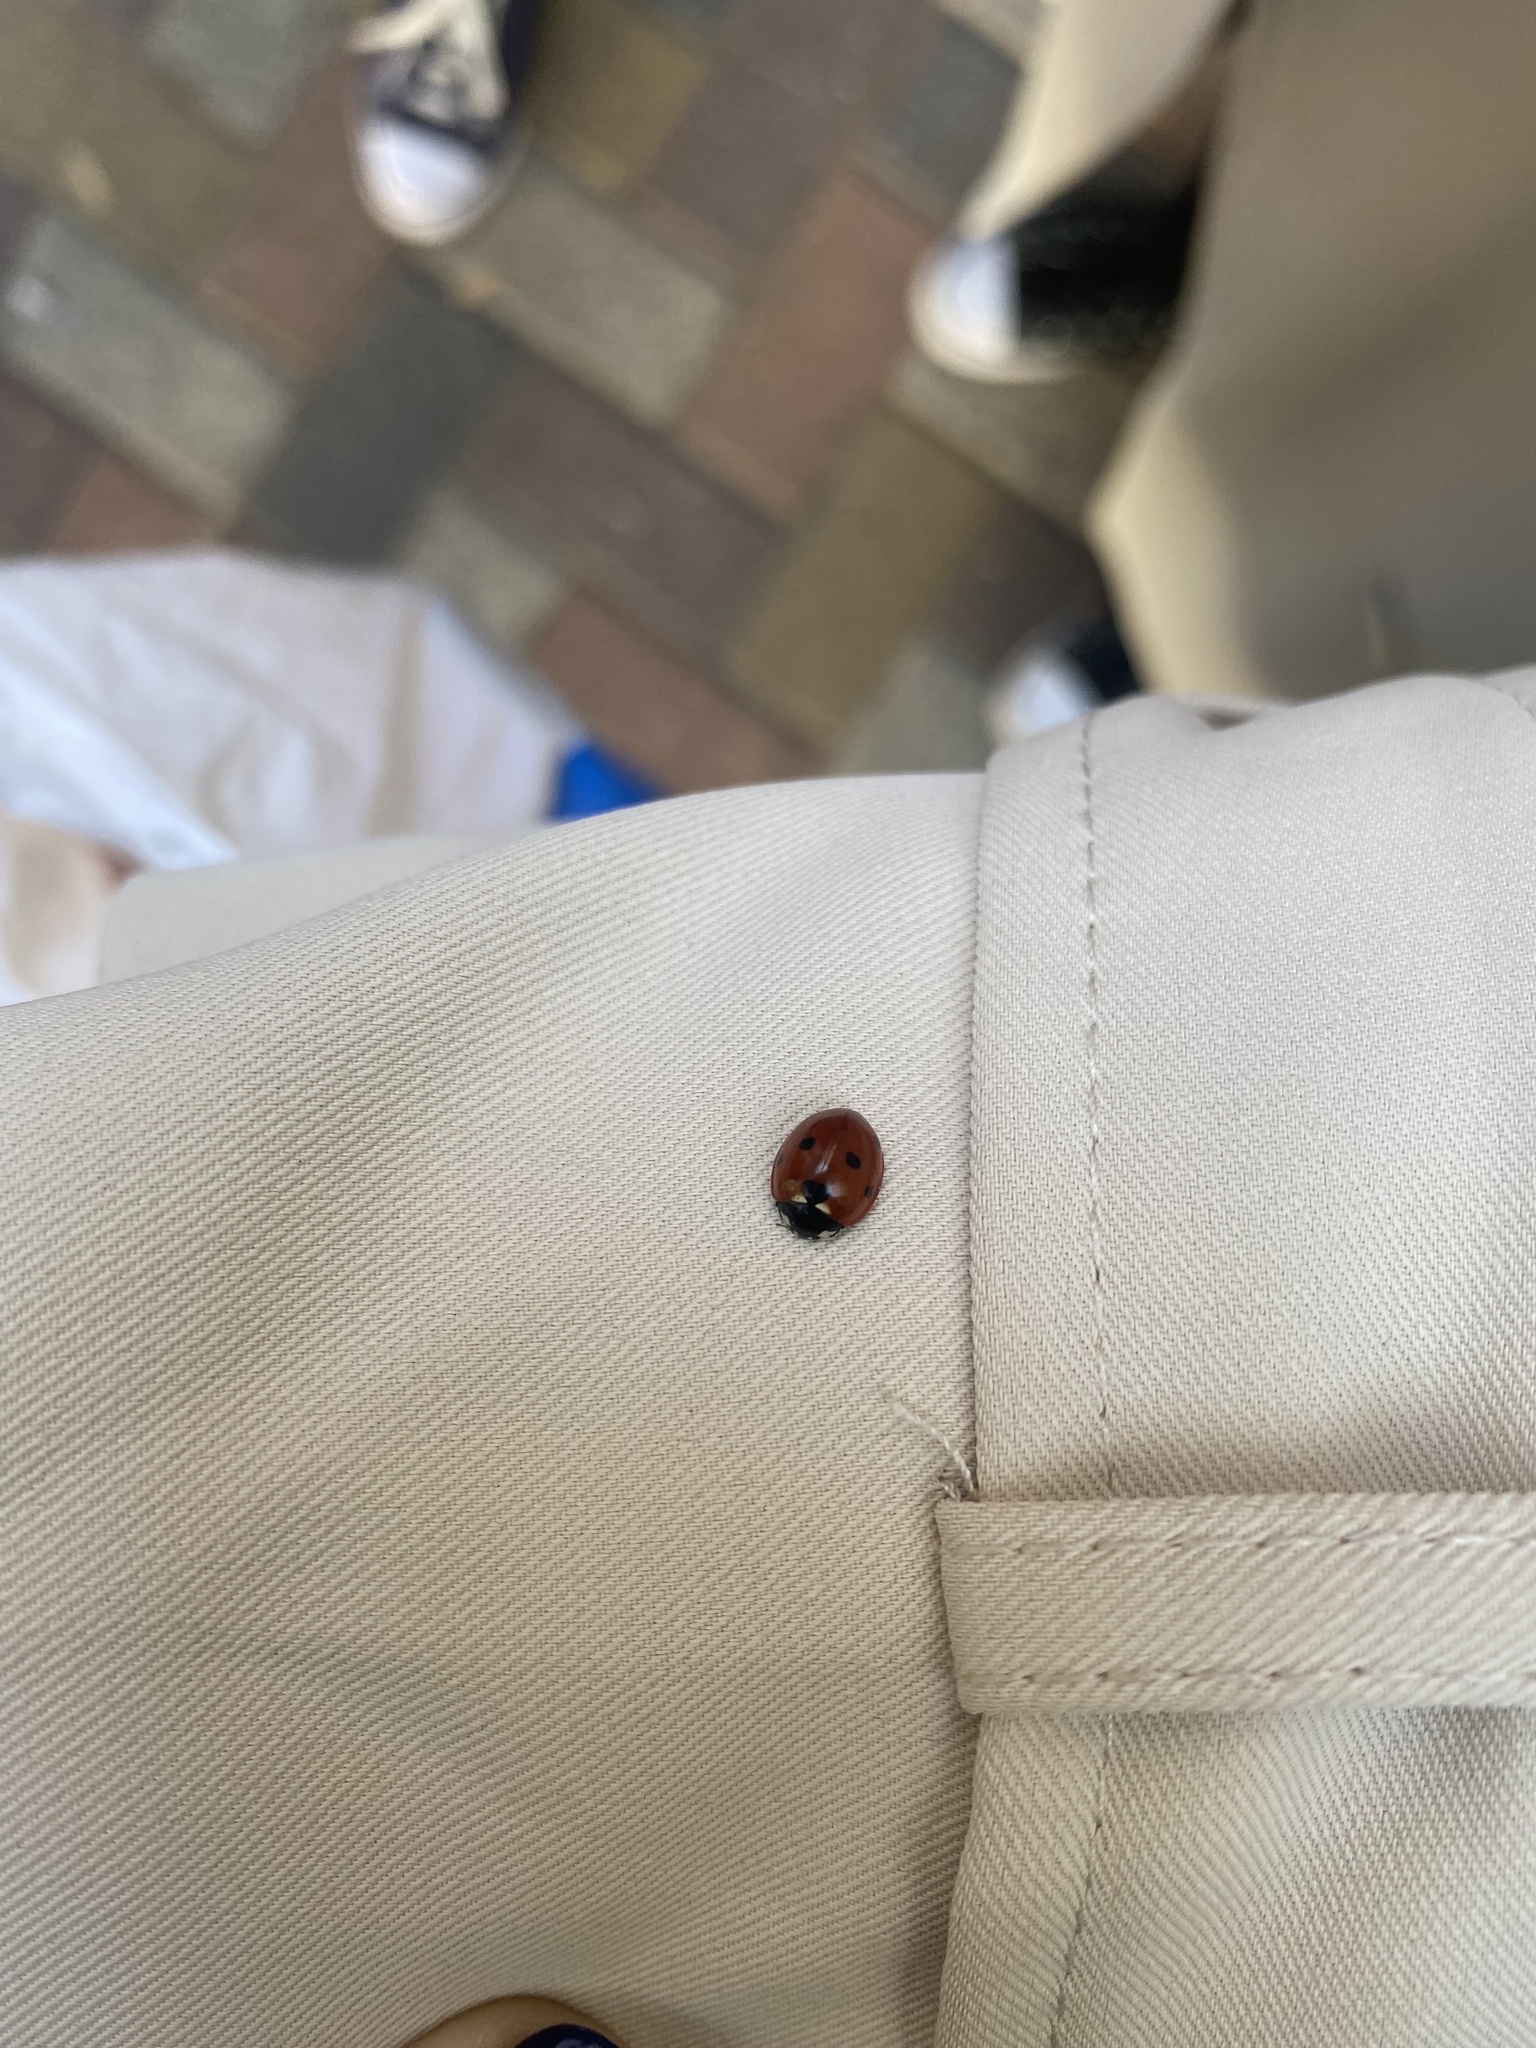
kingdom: Animalia
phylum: Arthropoda
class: Insecta
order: Coleoptera
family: Coccinellidae
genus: Coccinella
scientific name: Coccinella septempunctata
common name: Sevenspotted lady beetle
